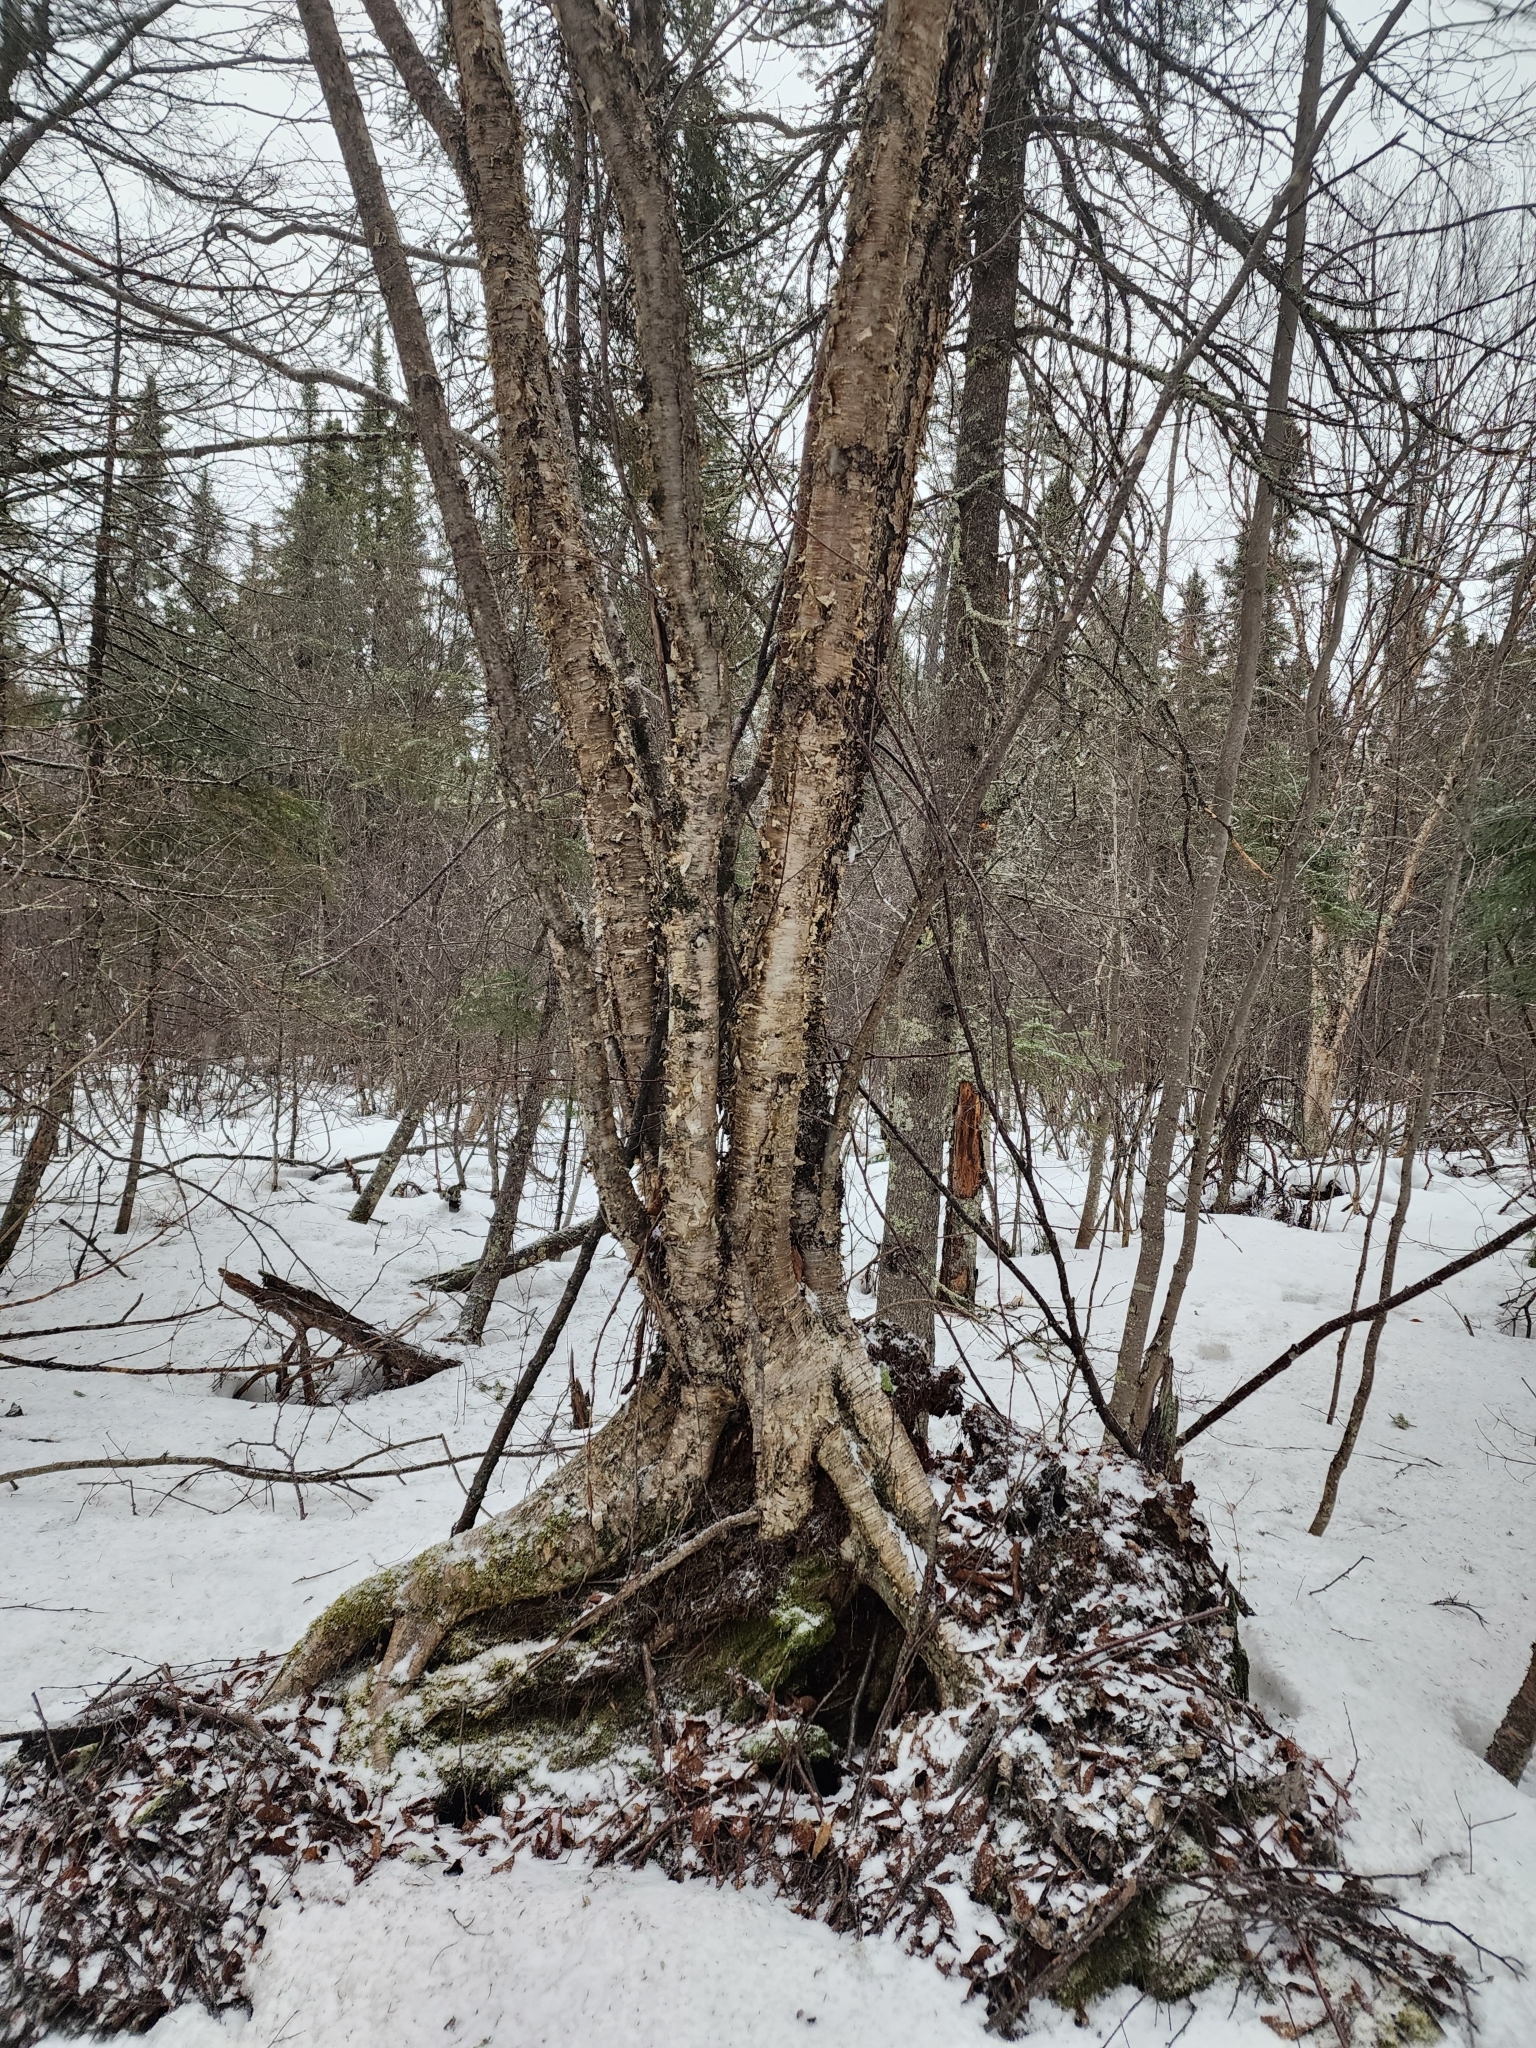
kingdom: Plantae
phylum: Tracheophyta
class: Magnoliopsida
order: Fagales
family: Betulaceae
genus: Betula
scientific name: Betula alleghaniensis
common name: Yellow birch
